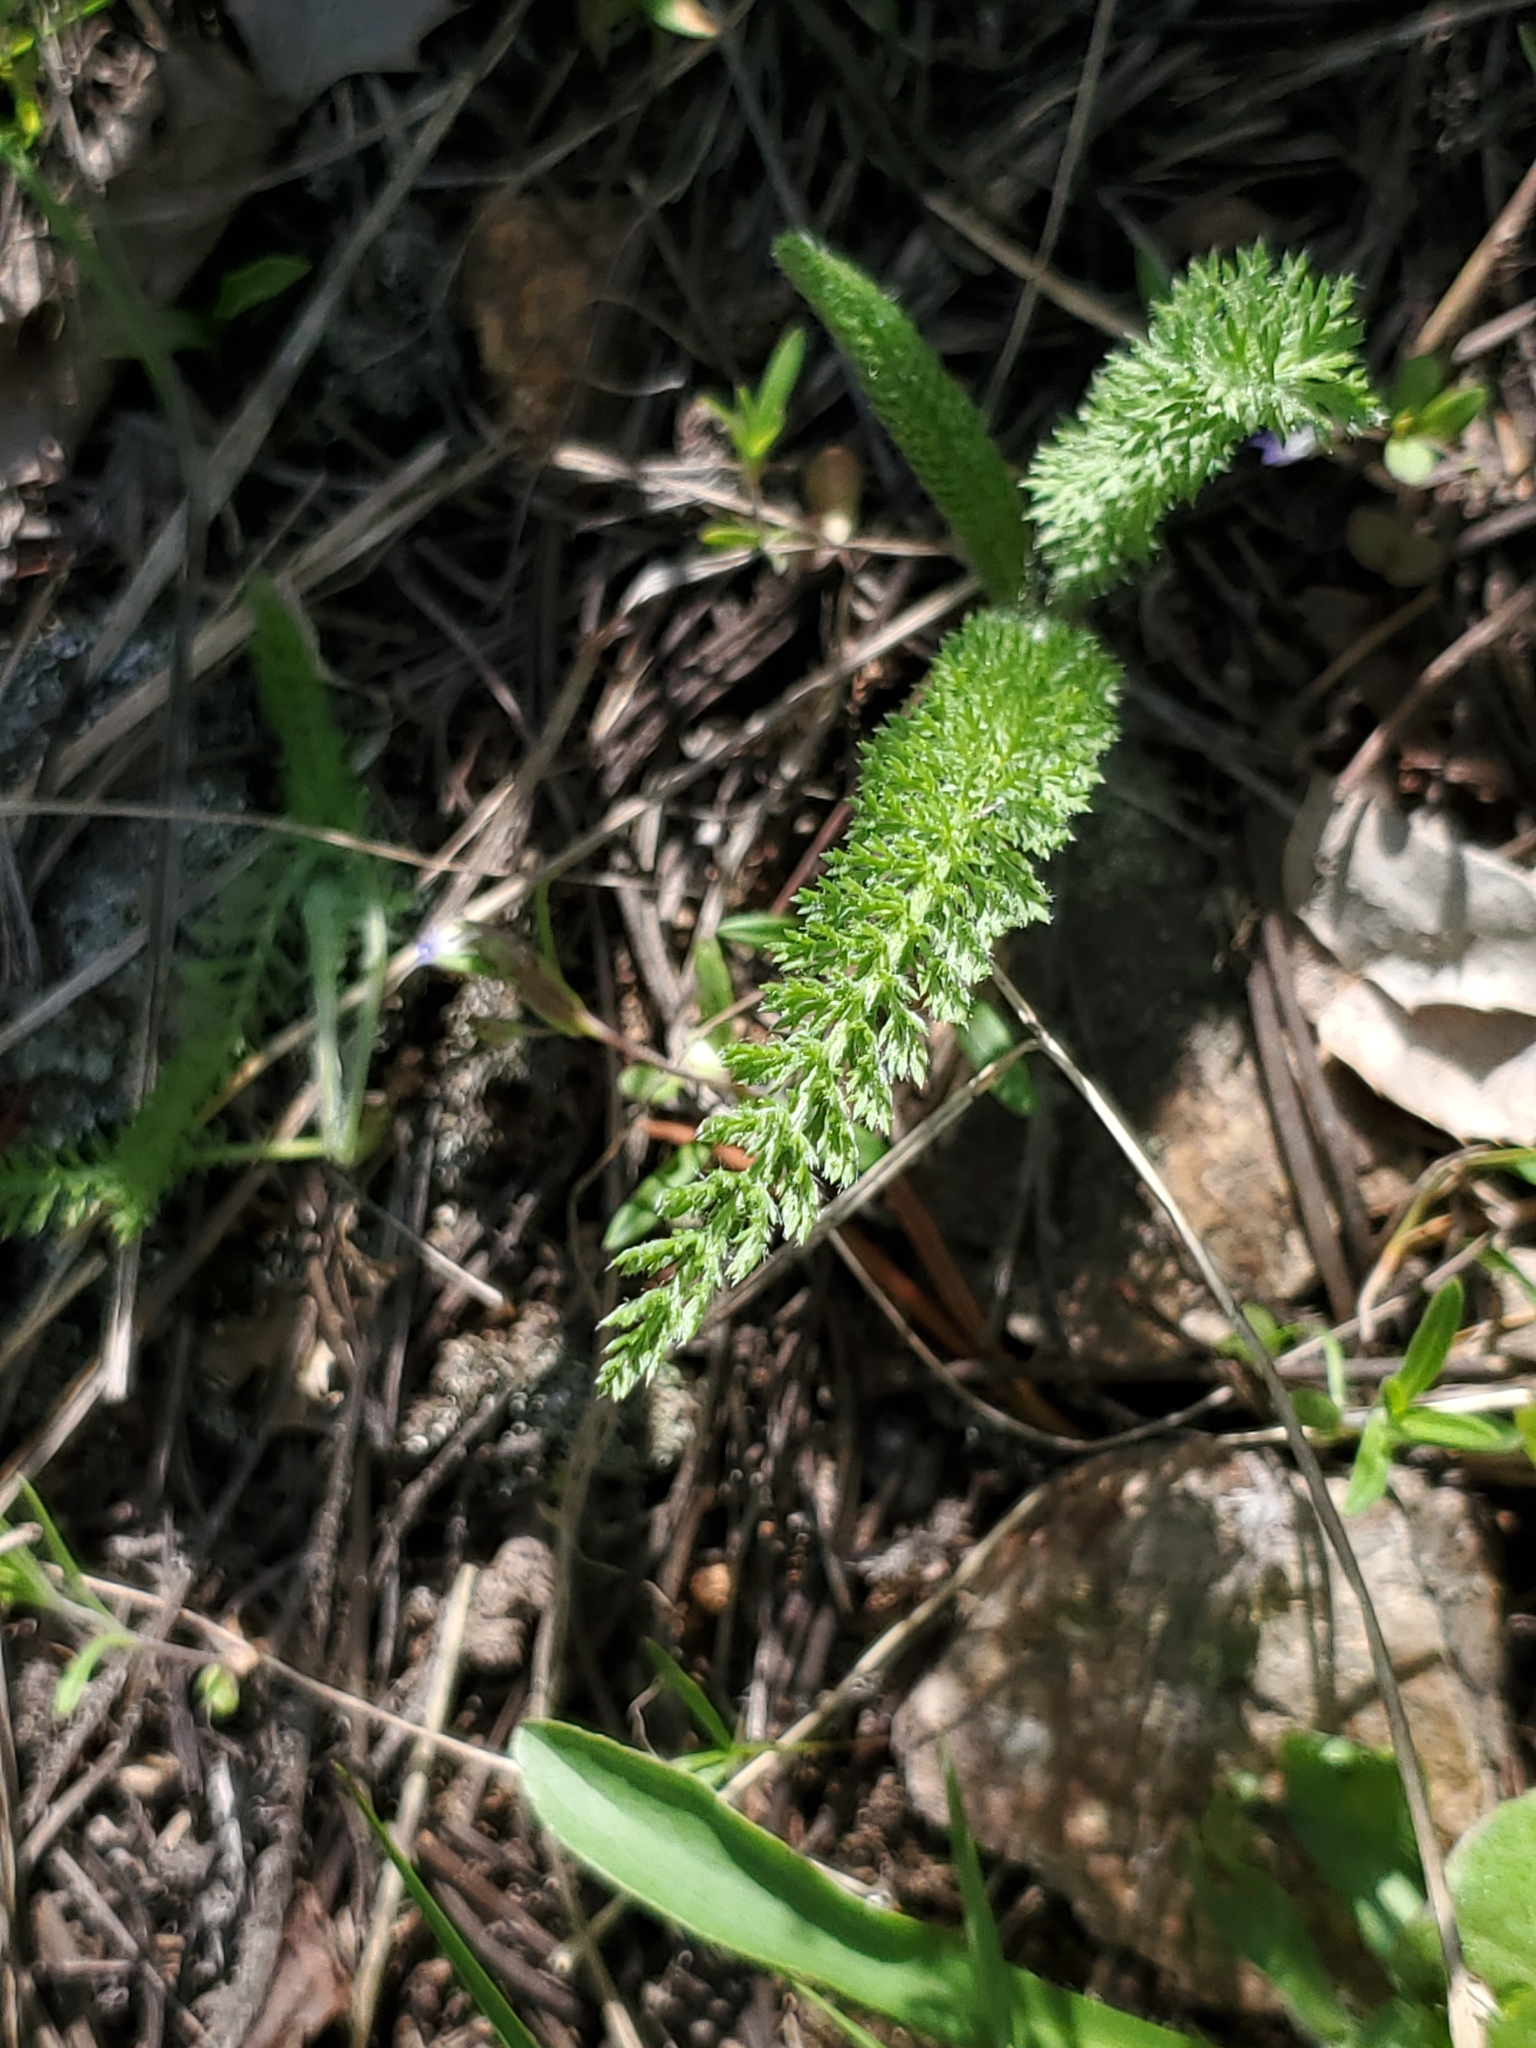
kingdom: Plantae
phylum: Tracheophyta
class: Magnoliopsida
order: Asterales
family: Asteraceae
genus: Achillea
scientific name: Achillea millefolium
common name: Yarrow
